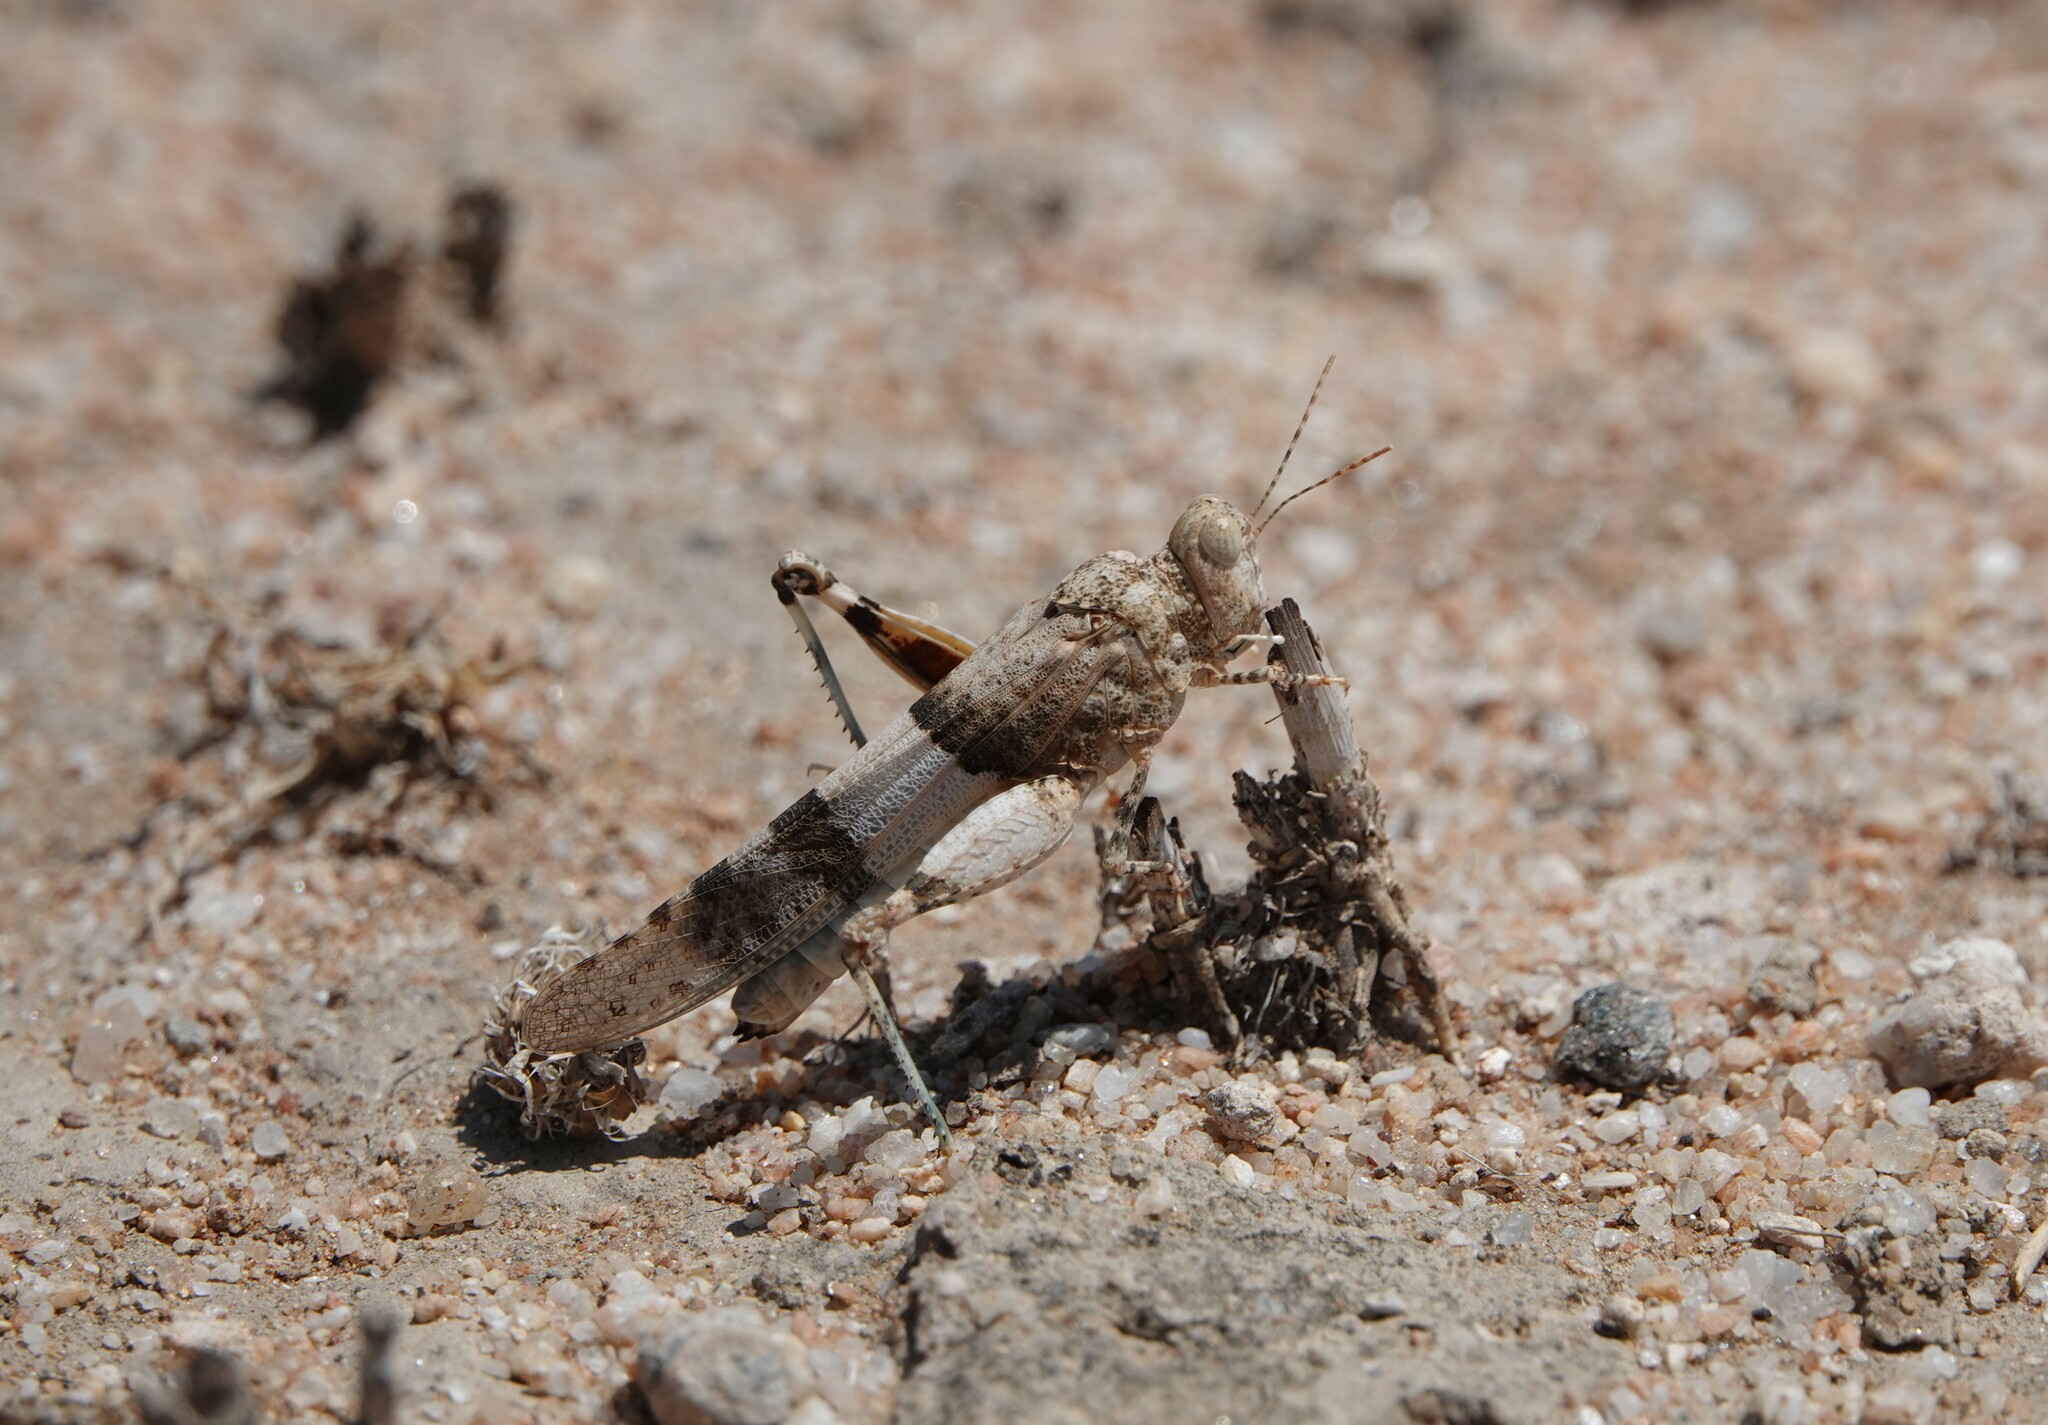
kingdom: Animalia
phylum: Arthropoda
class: Insecta
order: Orthoptera
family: Acrididae
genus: Sphingonotus
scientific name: Sphingonotus lobulatus
